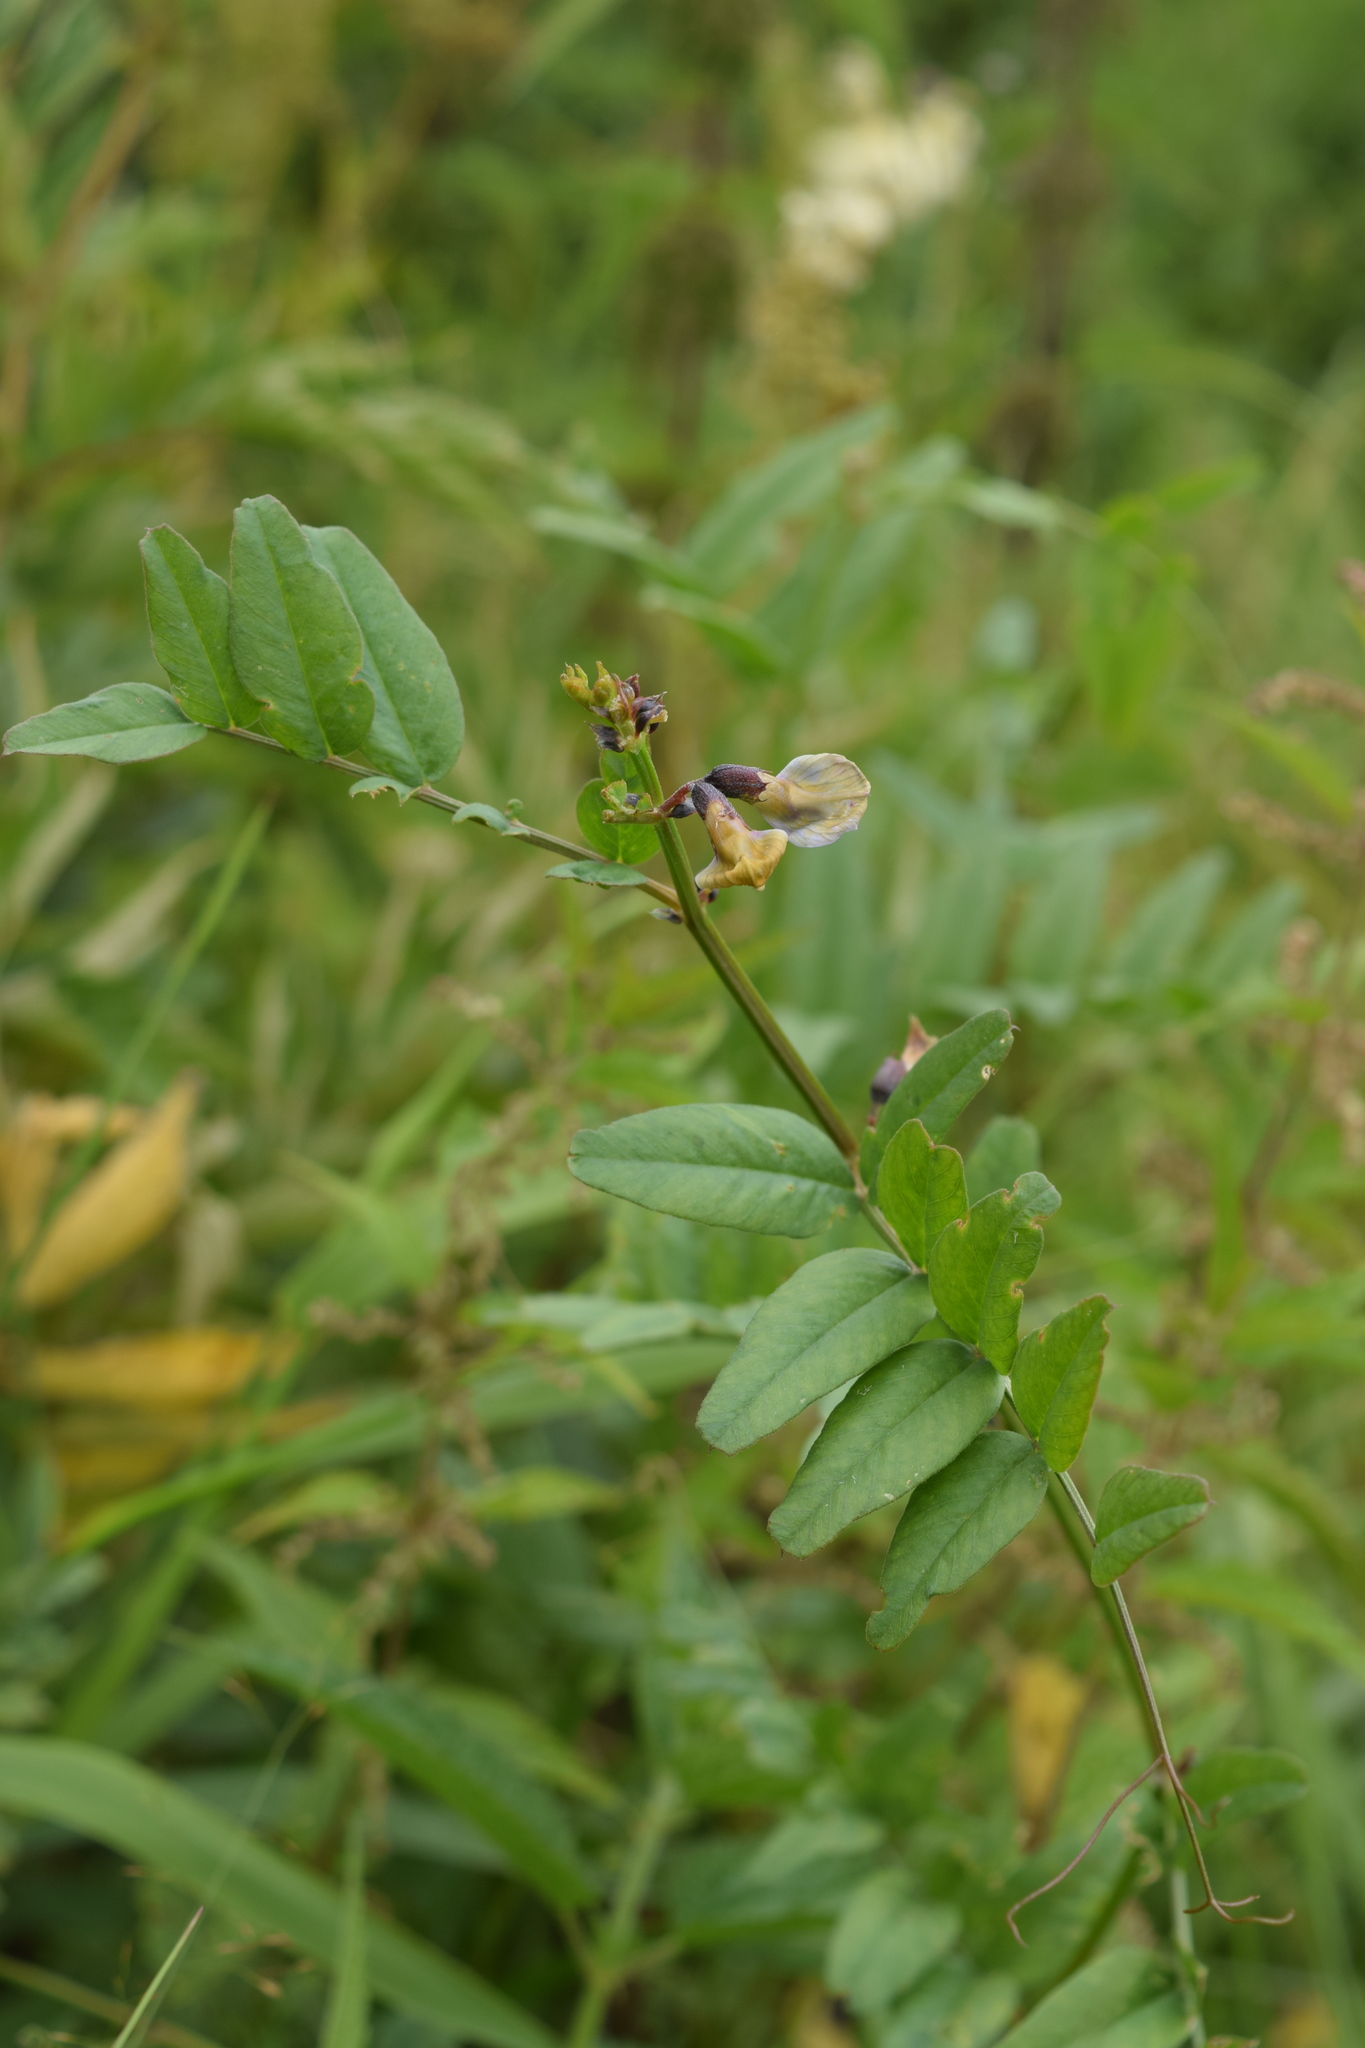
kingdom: Plantae
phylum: Tracheophyta
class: Magnoliopsida
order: Fabales
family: Fabaceae
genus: Vicia
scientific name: Vicia sepium
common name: Bush vetch
